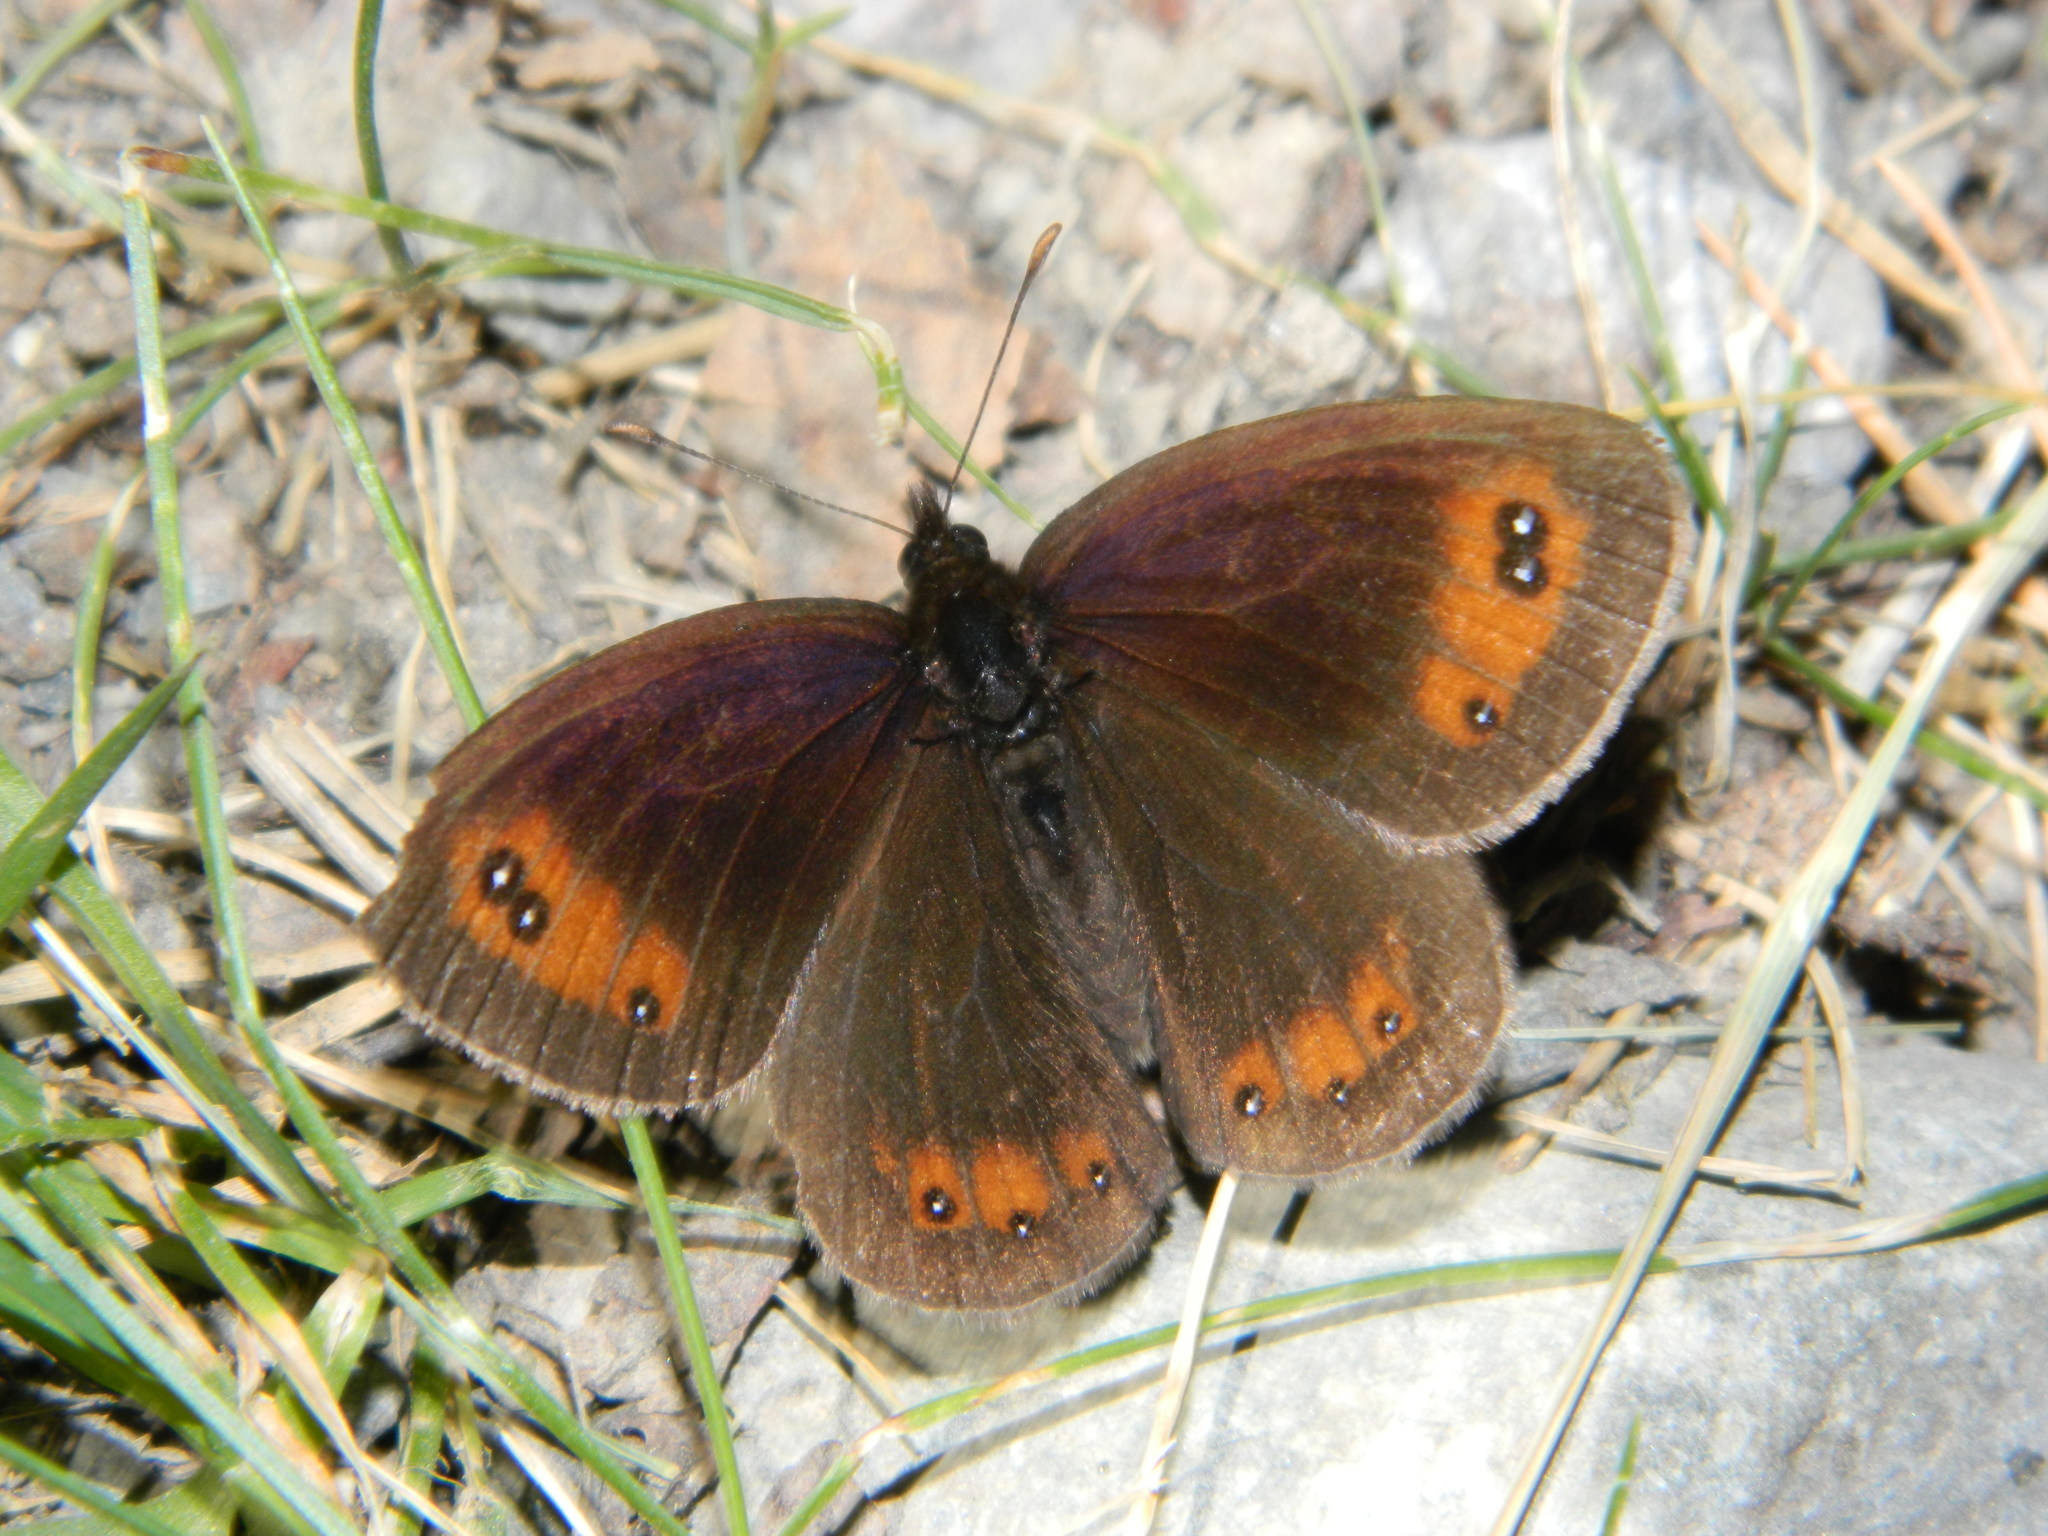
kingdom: Animalia
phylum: Arthropoda
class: Insecta
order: Lepidoptera
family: Nymphalidae
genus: Erebia
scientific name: Erebia meolans
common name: Piedmont ringlet
